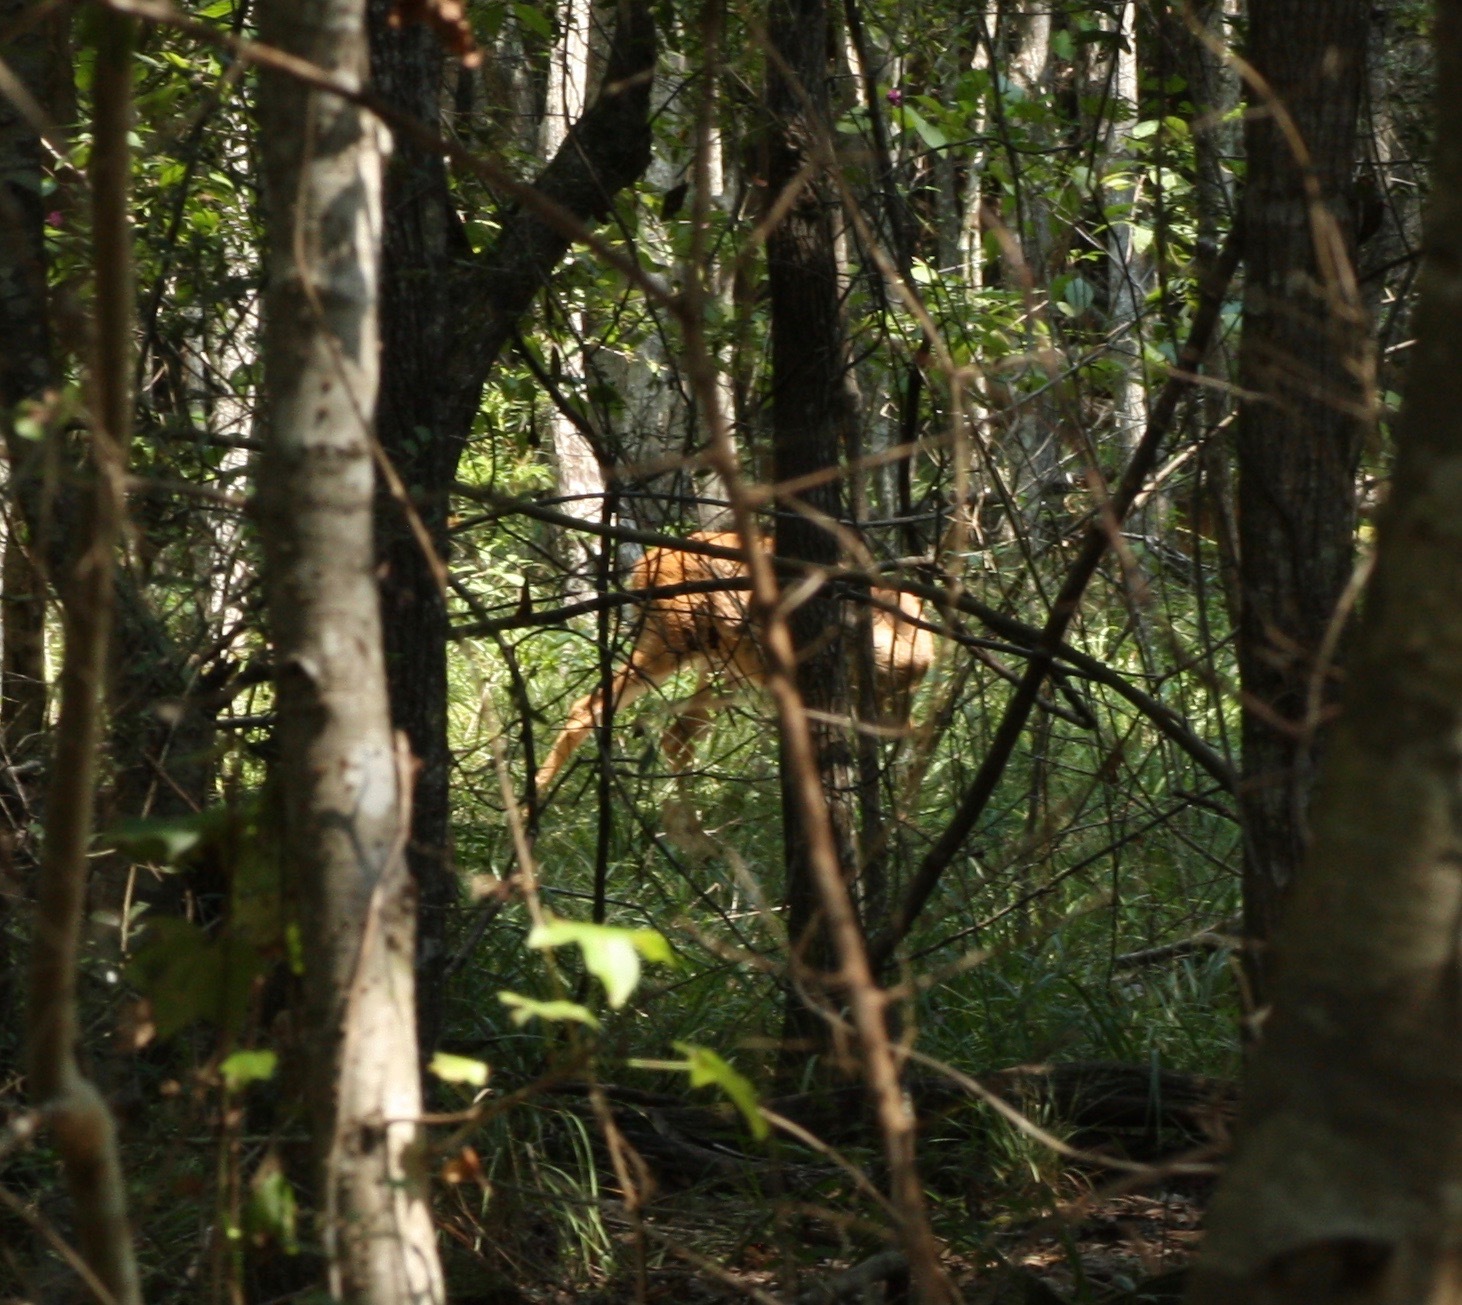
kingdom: Animalia
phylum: Chordata
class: Mammalia
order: Artiodactyla
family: Cervidae
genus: Odocoileus
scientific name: Odocoileus virginianus
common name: White-tailed deer
